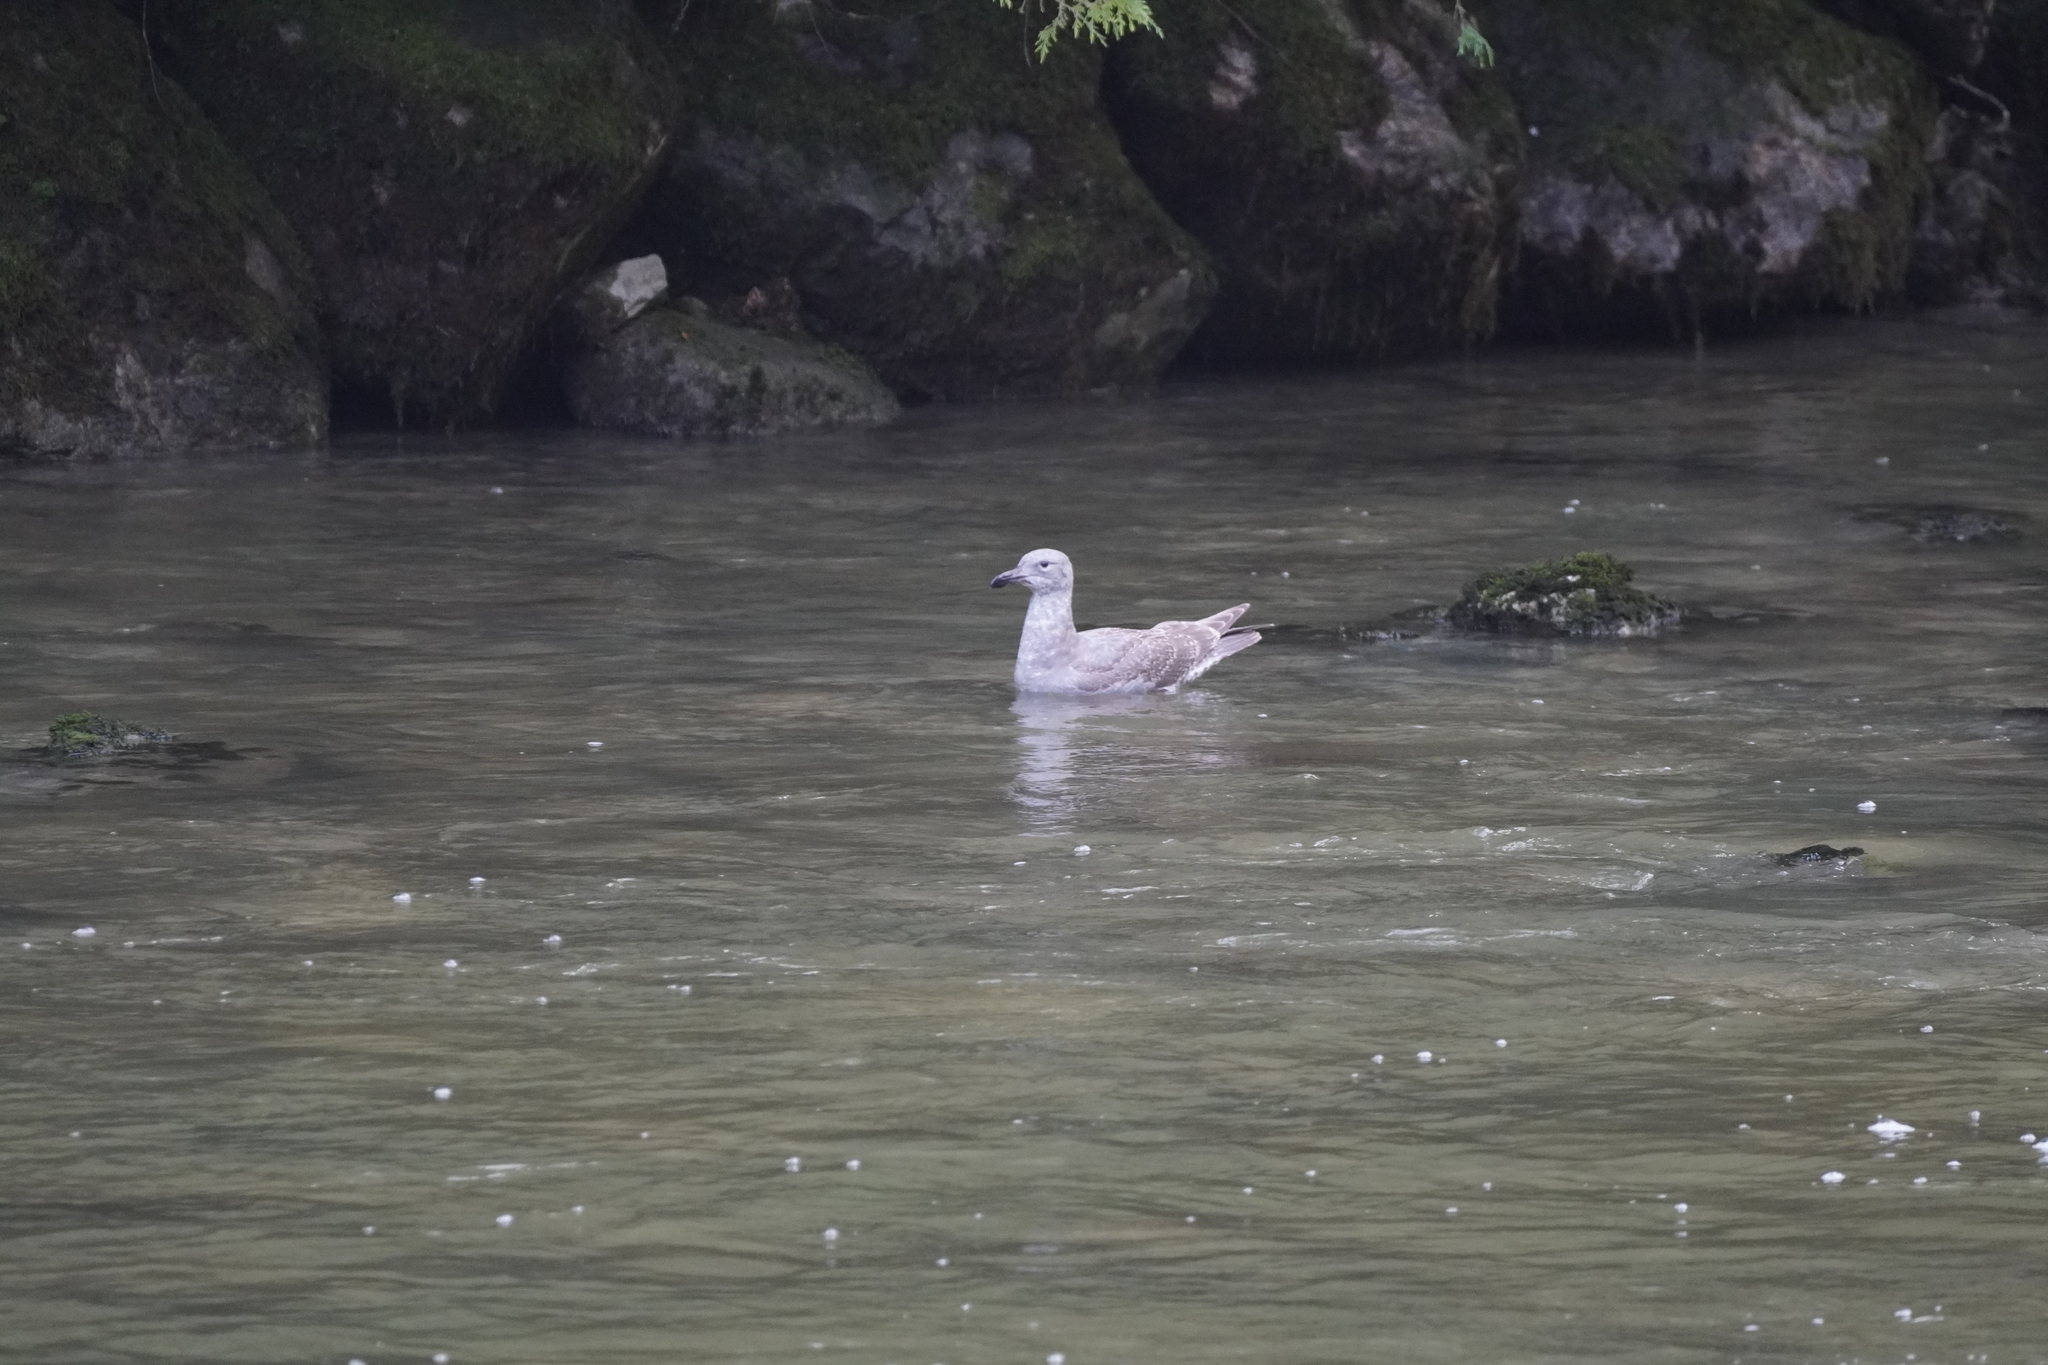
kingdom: Animalia
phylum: Chordata
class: Aves
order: Charadriiformes
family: Laridae
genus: Larus
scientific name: Larus glaucescens
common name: Glaucous-winged gull
